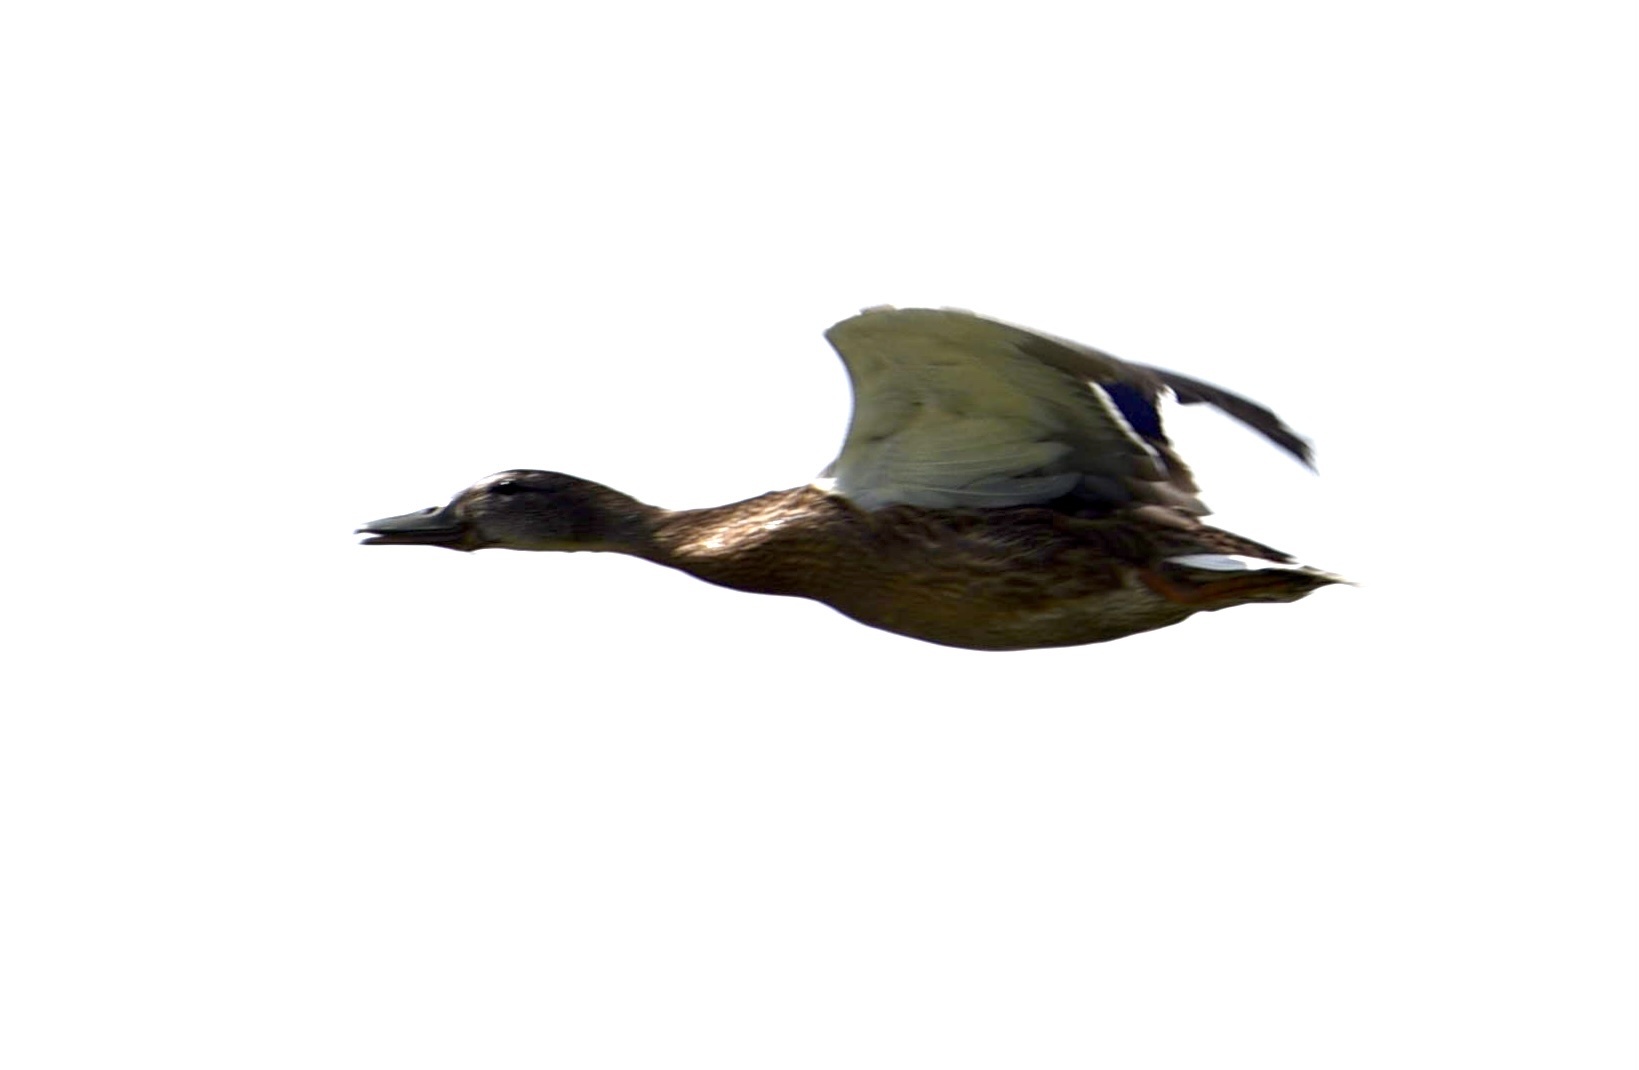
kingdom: Animalia
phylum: Chordata
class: Aves
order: Anseriformes
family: Anatidae
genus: Anas
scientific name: Anas platyrhynchos
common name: Mallard
